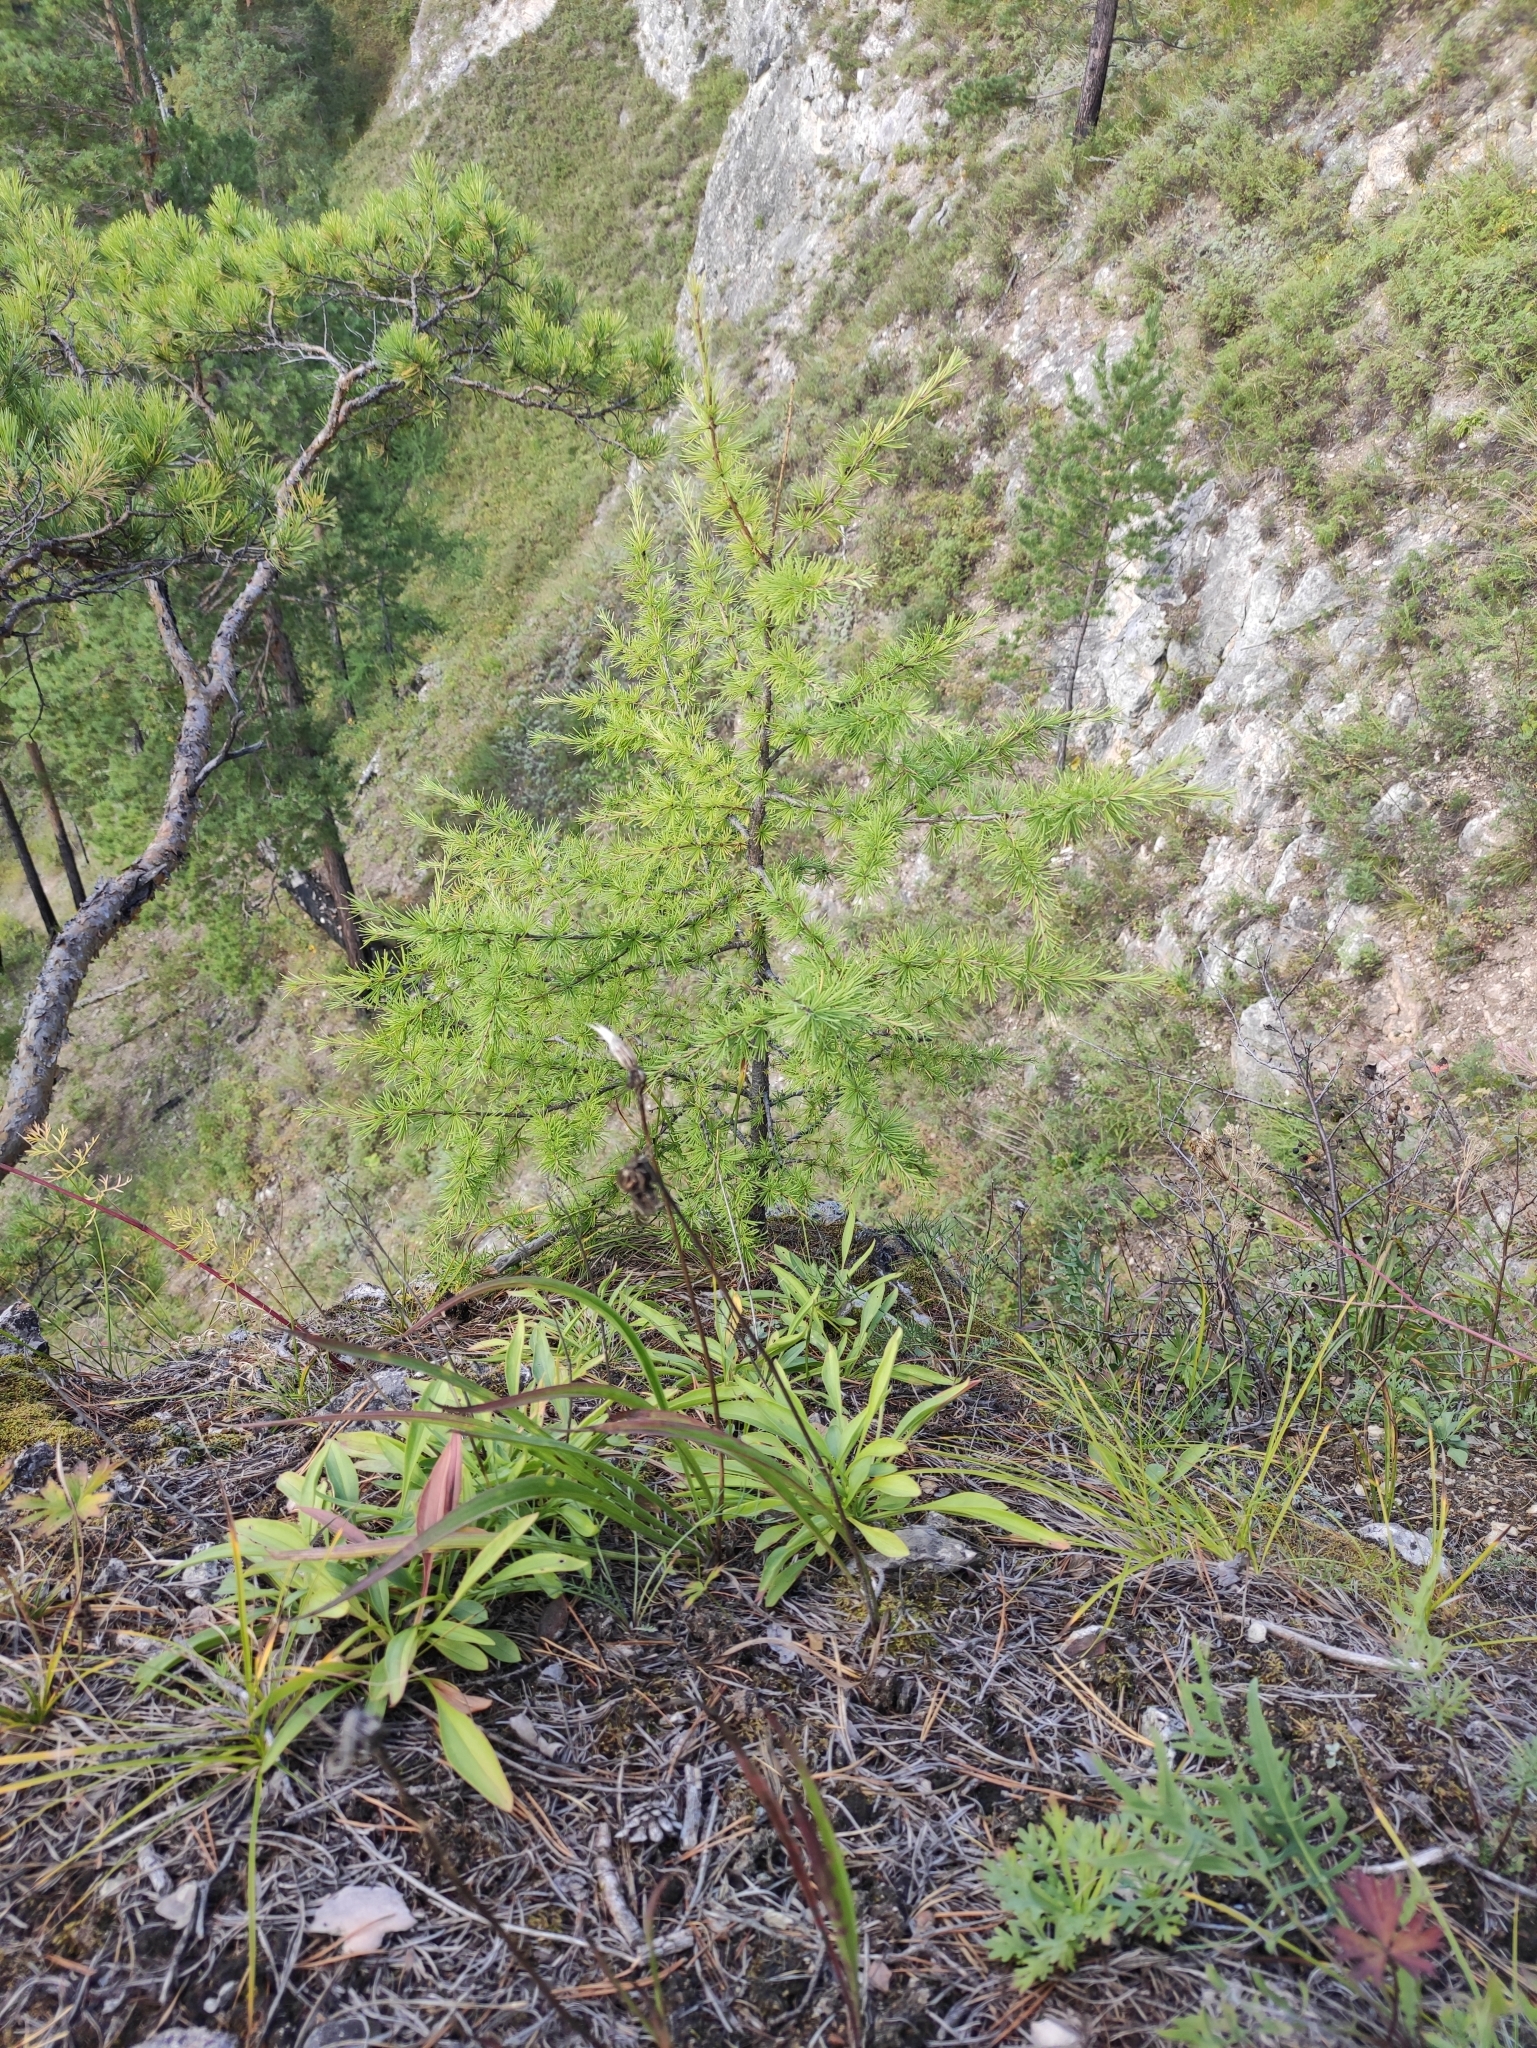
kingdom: Plantae
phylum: Tracheophyta
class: Pinopsida
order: Pinales
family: Pinaceae
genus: Larix
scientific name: Larix sibirica
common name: Siberian larch
